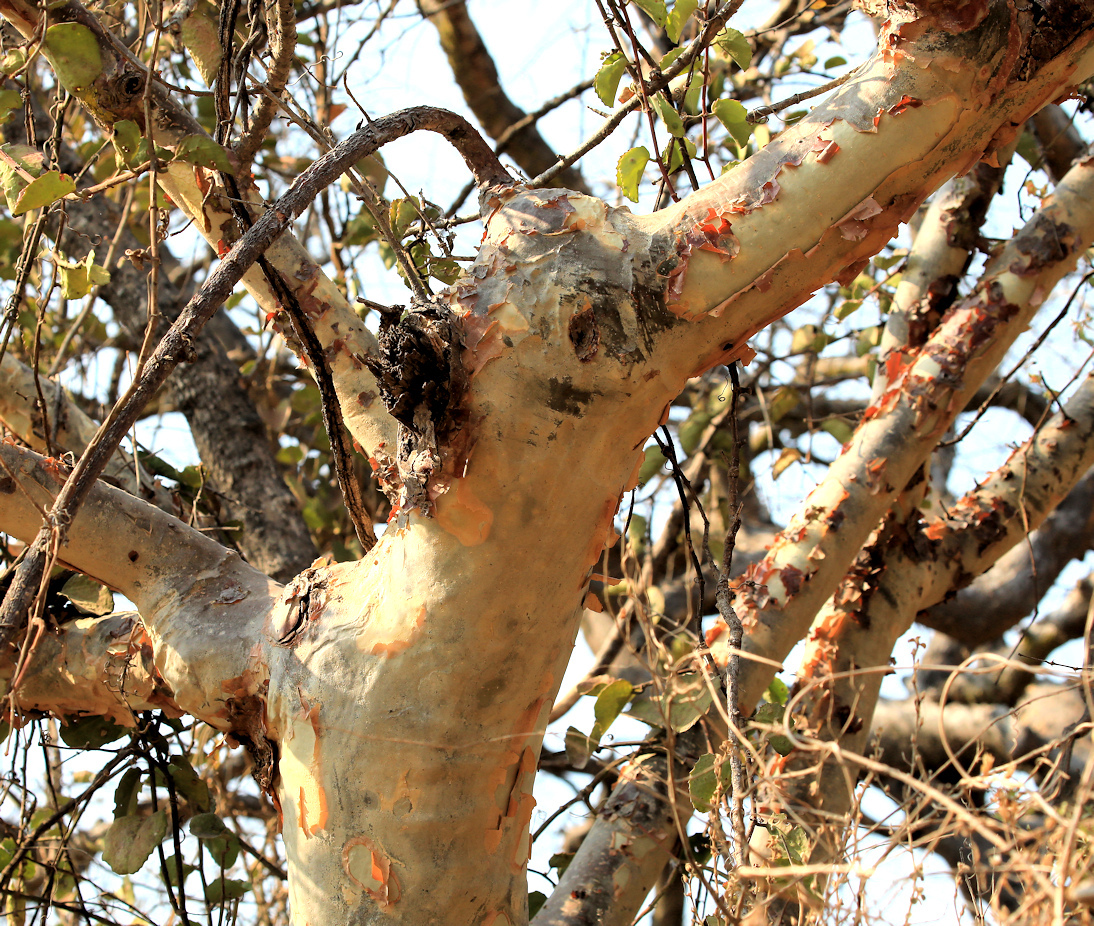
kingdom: Plantae
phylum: Tracheophyta
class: Magnoliopsida
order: Malvales
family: Malvaceae
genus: Sterculia
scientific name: Sterculia rogersii
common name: Star-chestnut
